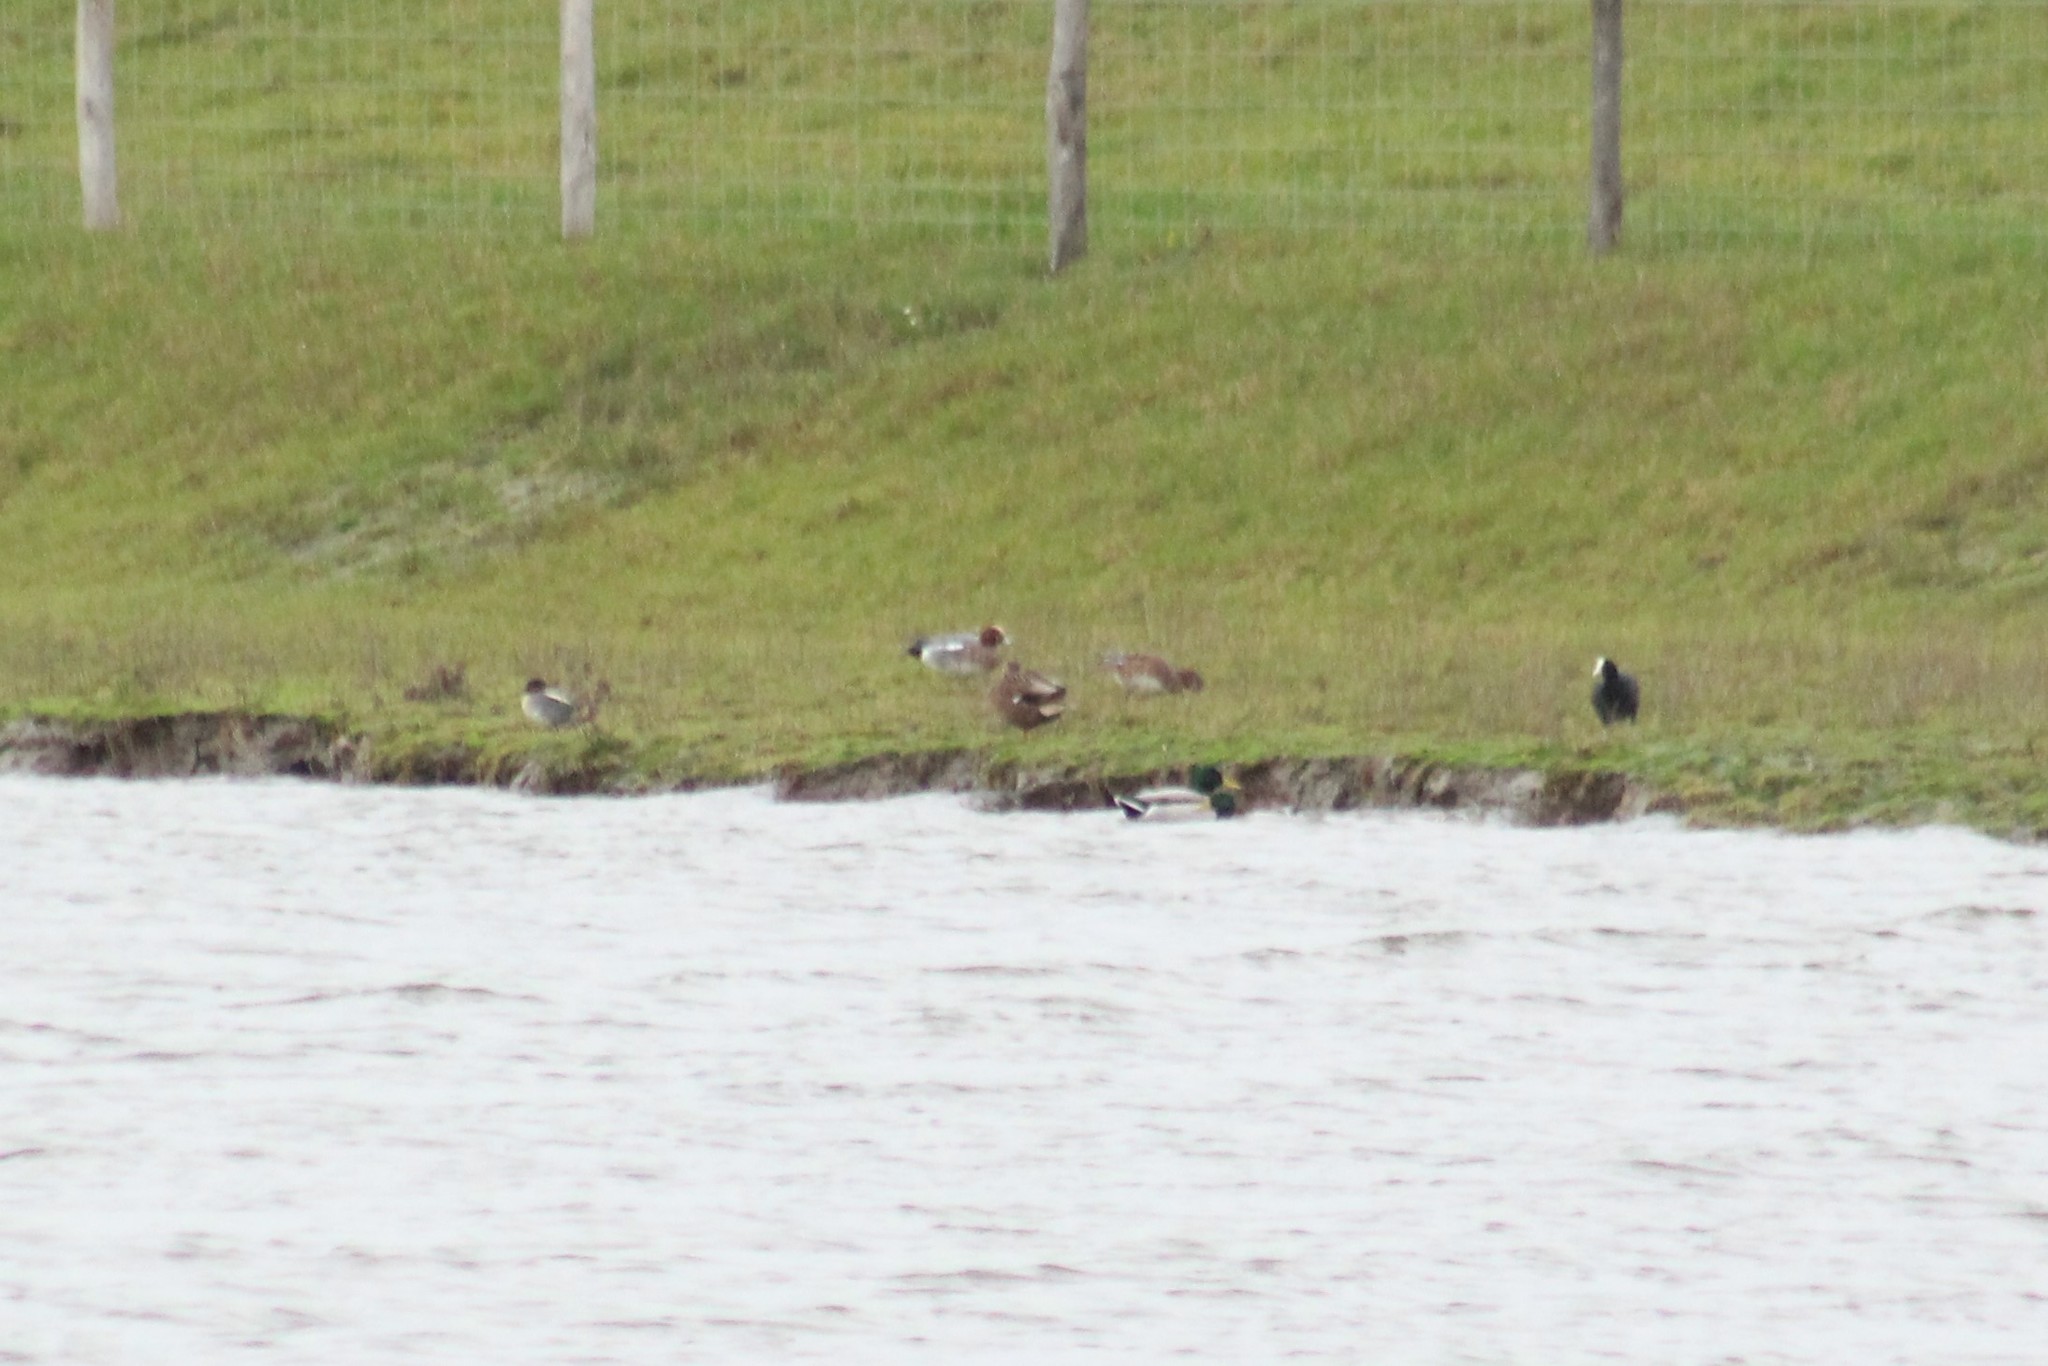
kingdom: Animalia
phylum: Chordata
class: Aves
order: Anseriformes
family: Anatidae
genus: Mareca
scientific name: Mareca penelope
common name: Eurasian wigeon
